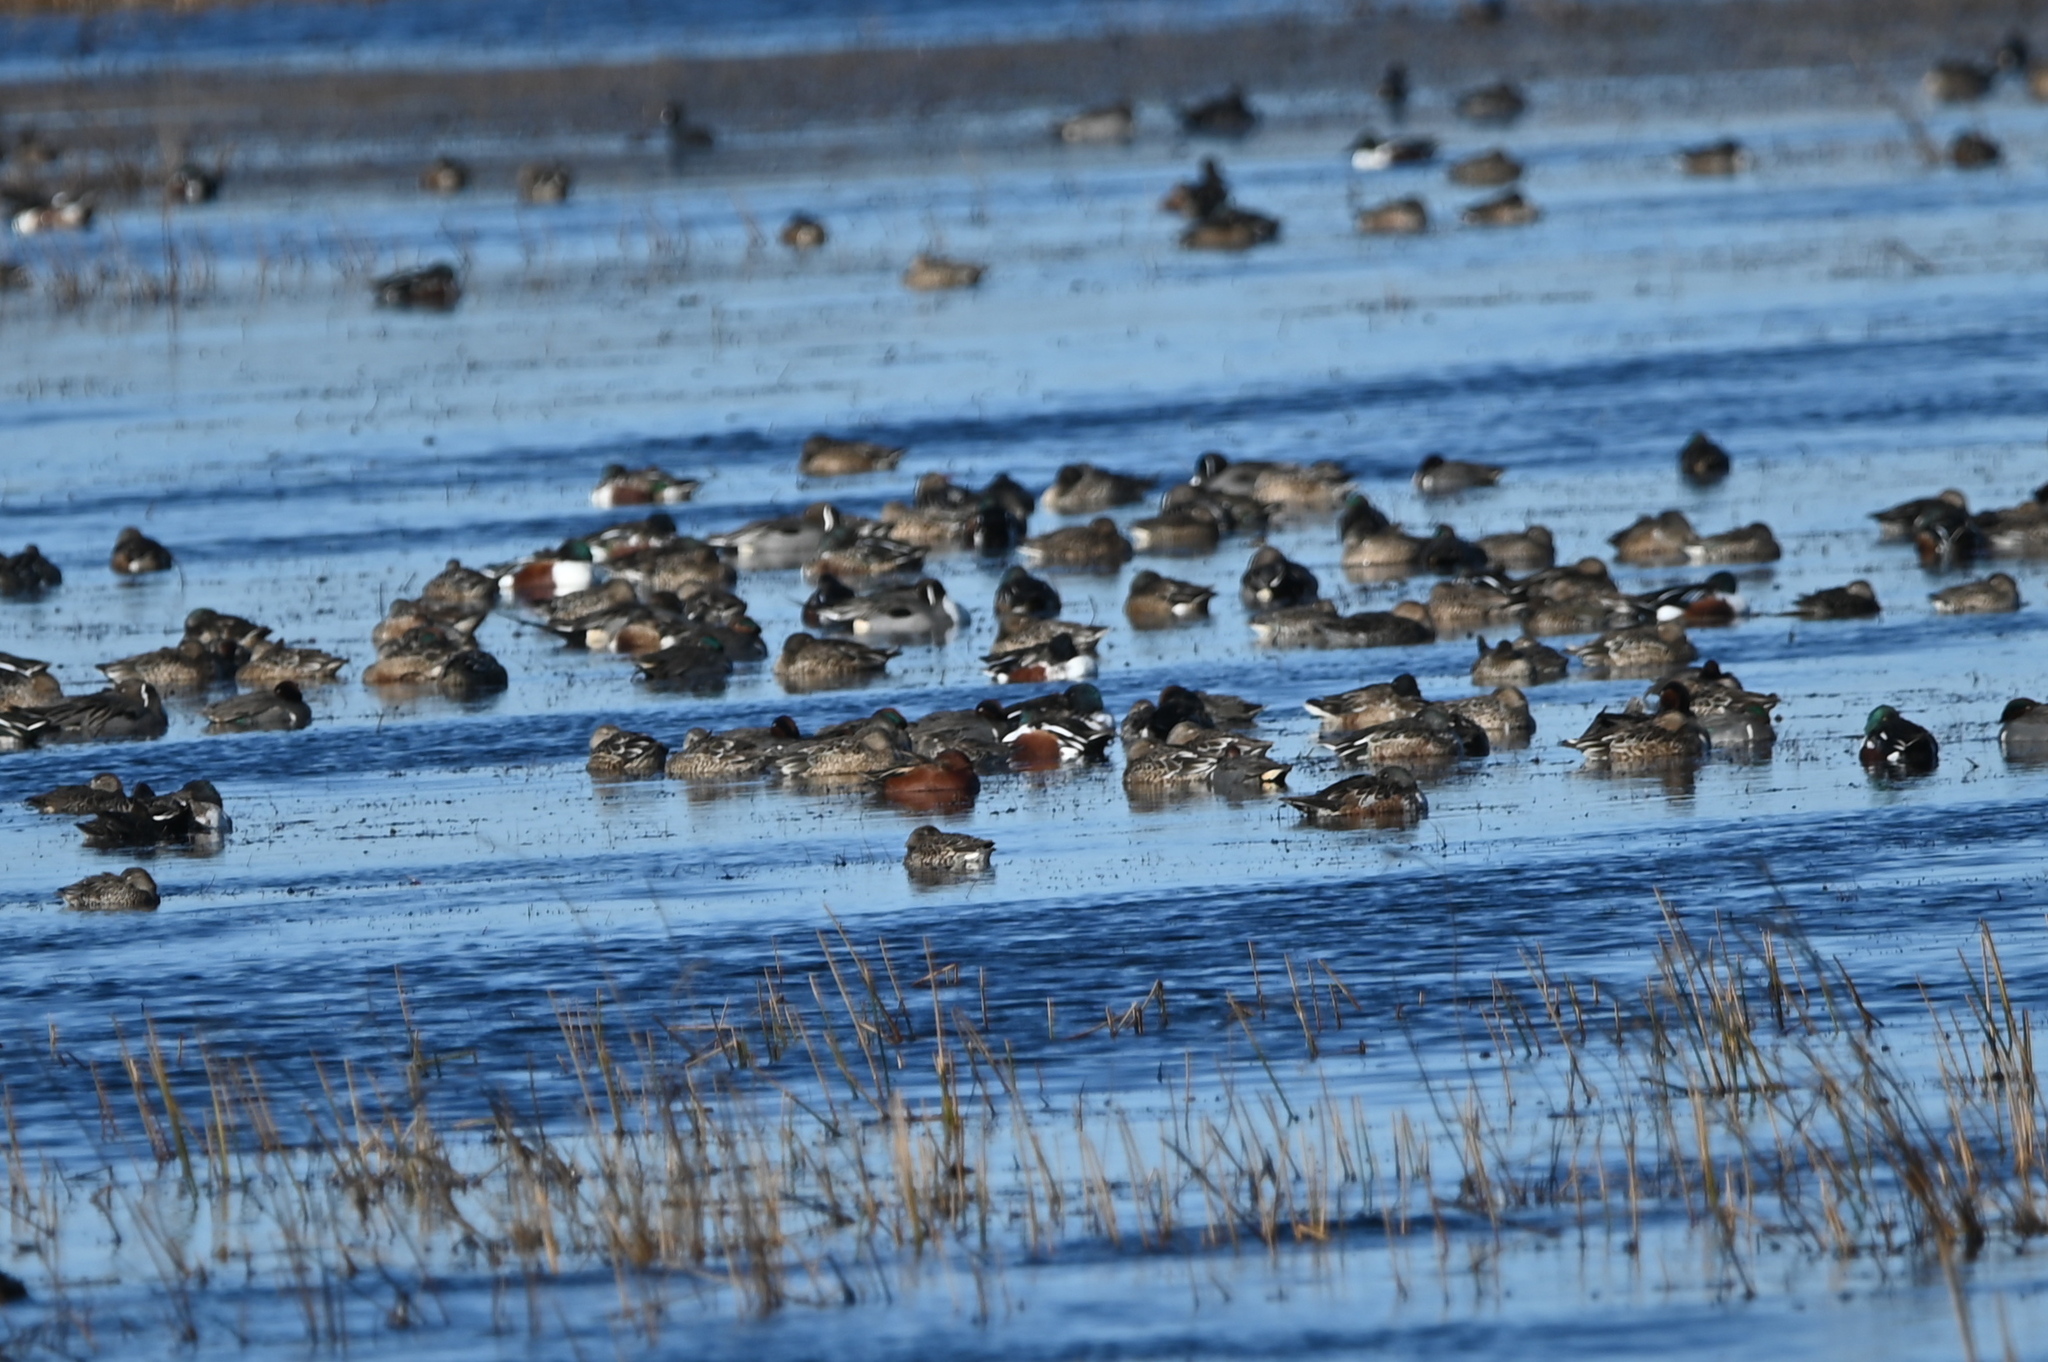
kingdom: Animalia
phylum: Chordata
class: Aves
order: Anseriformes
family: Anatidae
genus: Spatula
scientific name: Spatula cyanoptera
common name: Cinnamon teal
